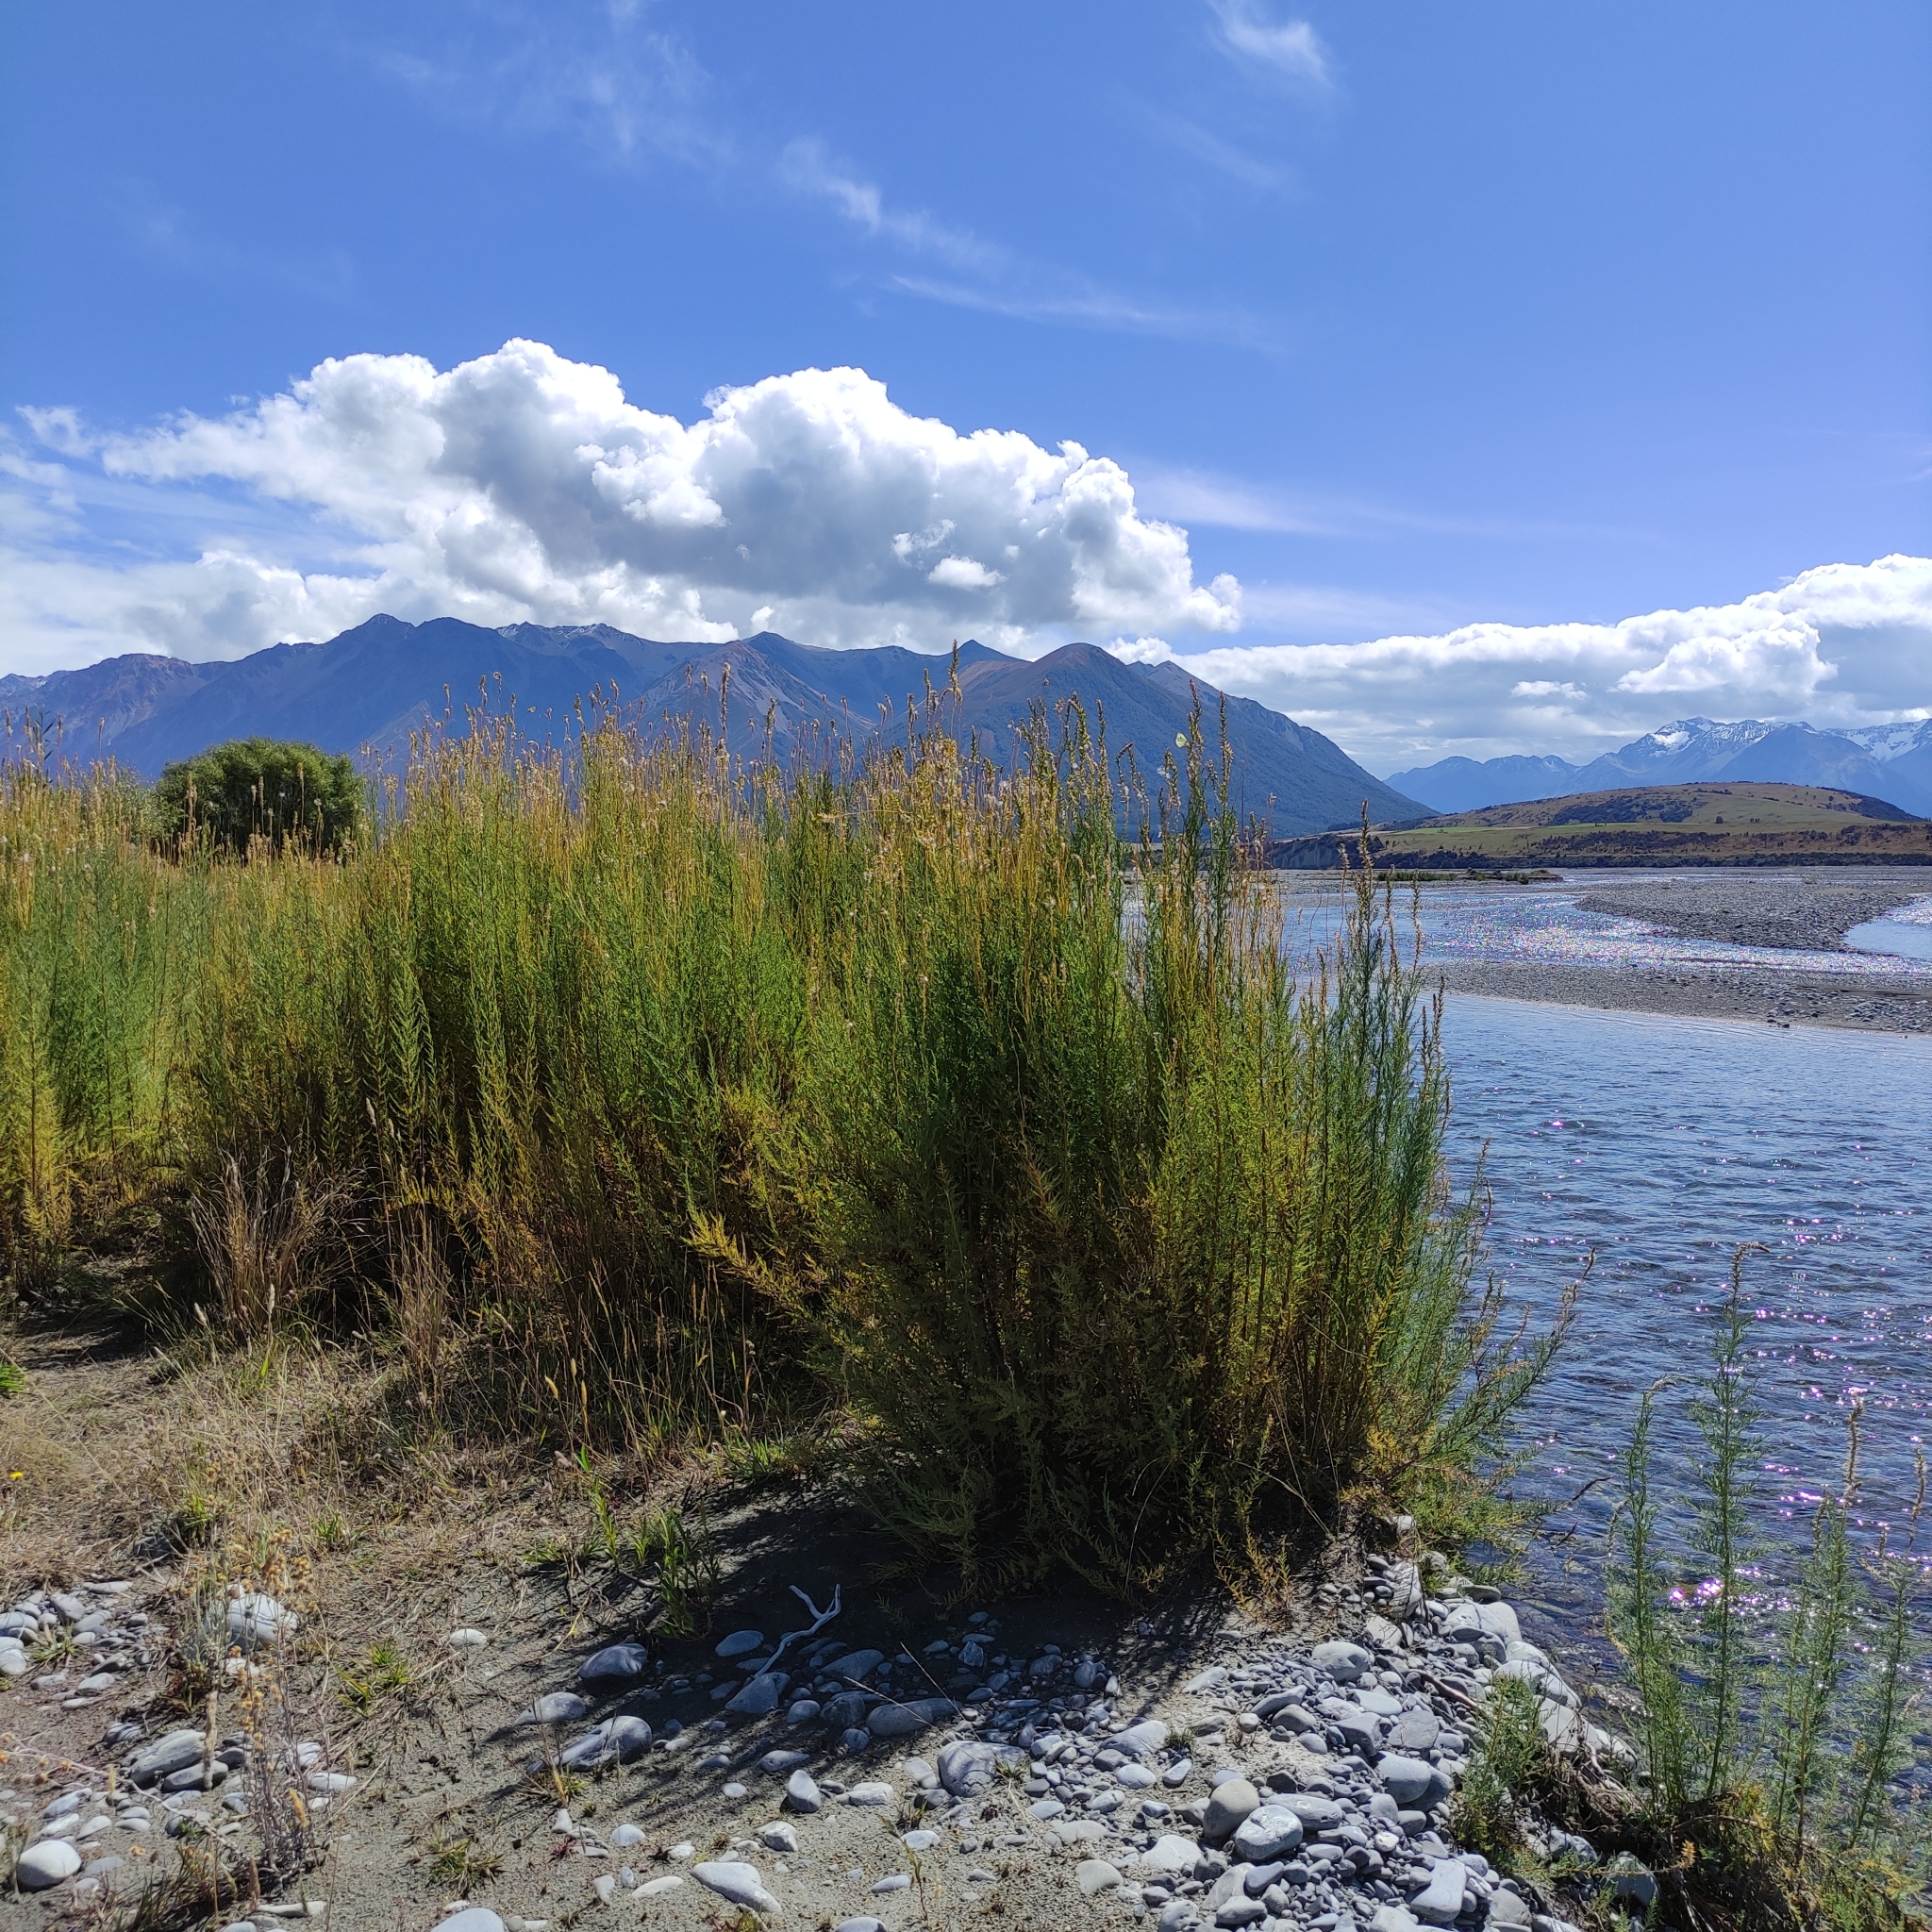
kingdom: Plantae
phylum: Tracheophyta
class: Magnoliopsida
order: Caryophyllales
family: Tamaricaceae
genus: Myricaria
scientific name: Myricaria germanica
